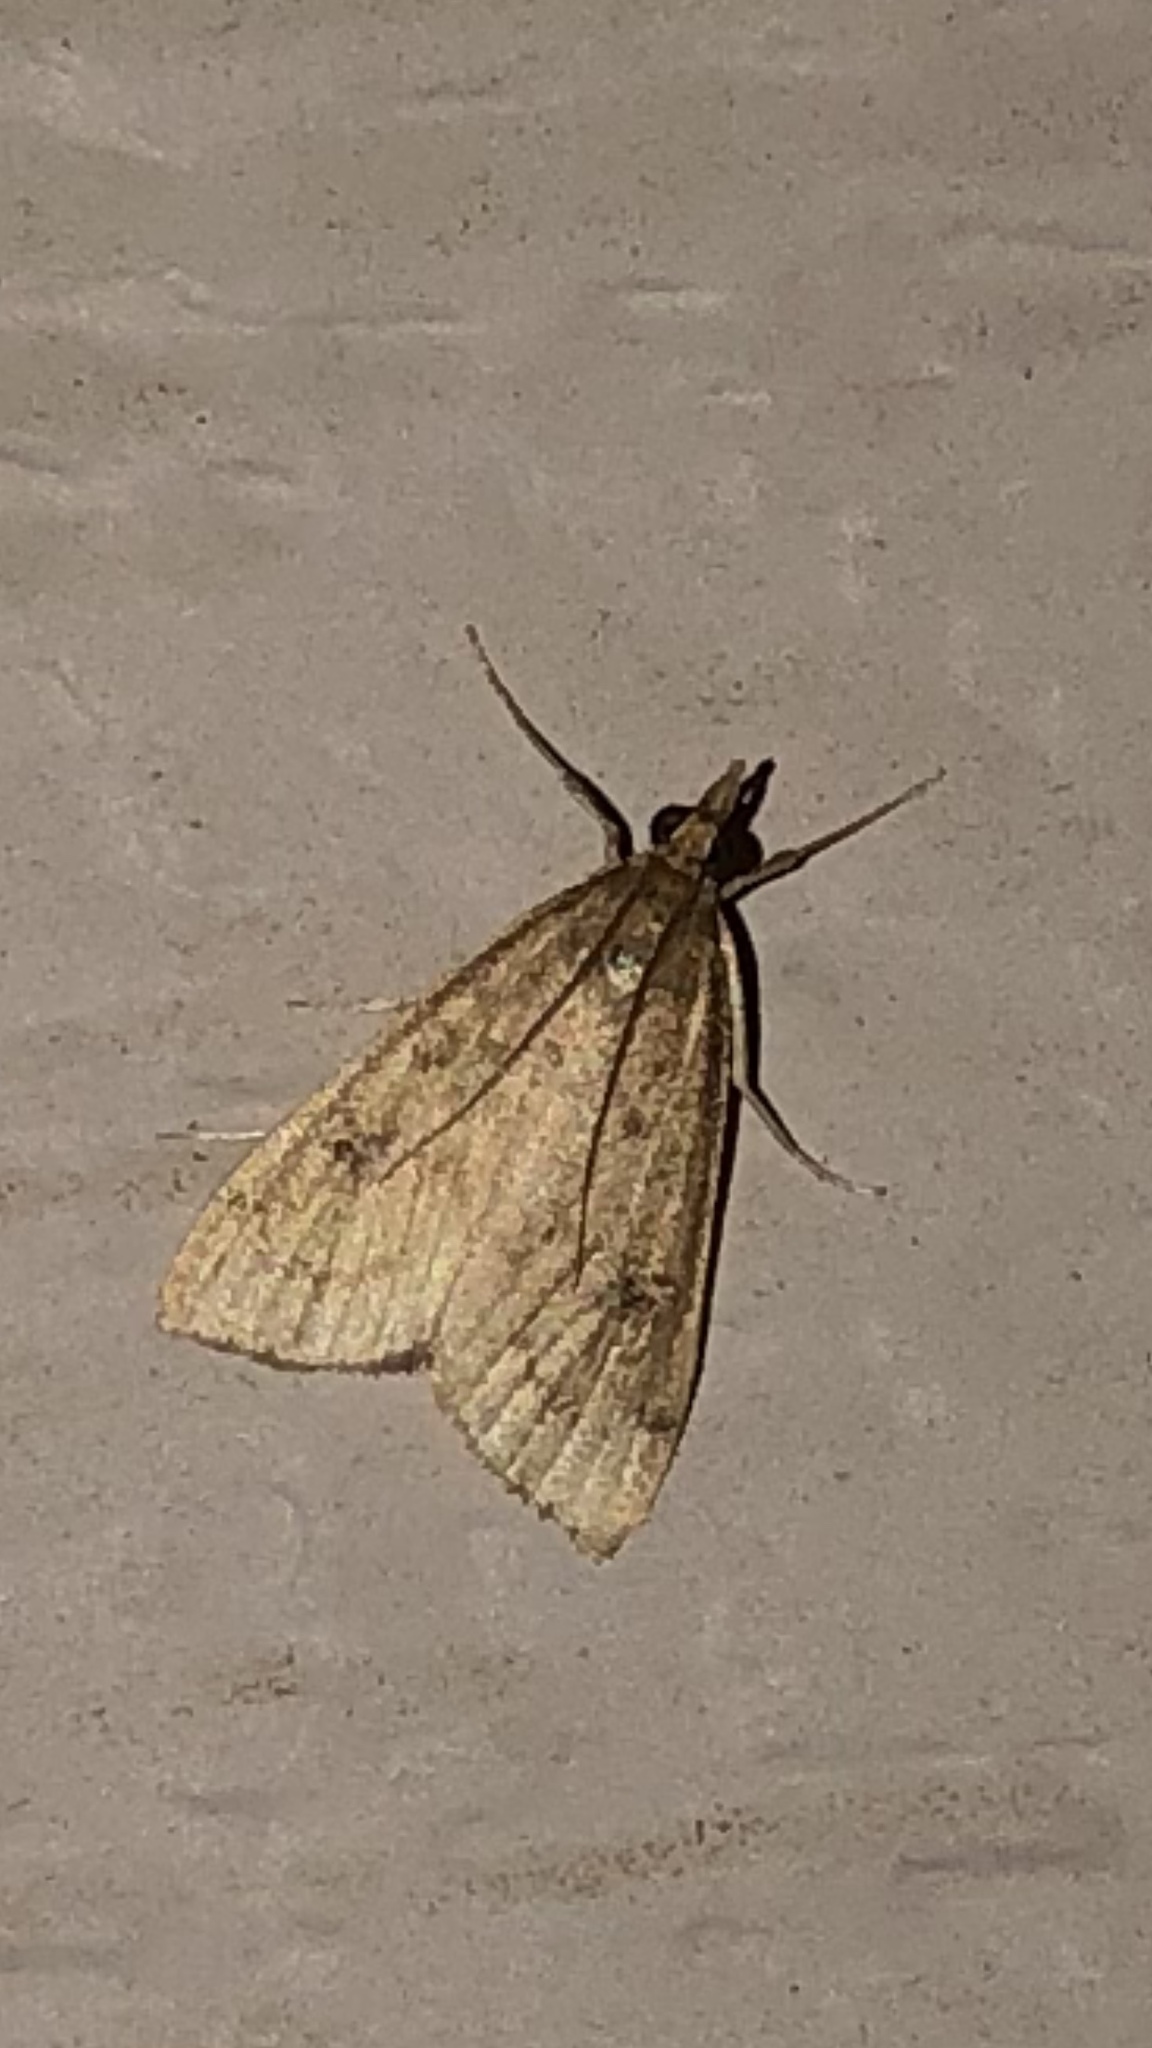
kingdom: Animalia
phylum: Arthropoda
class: Insecta
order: Lepidoptera
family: Crambidae
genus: Udea
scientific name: Udea rubigalis
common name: Celery leaftier moth
